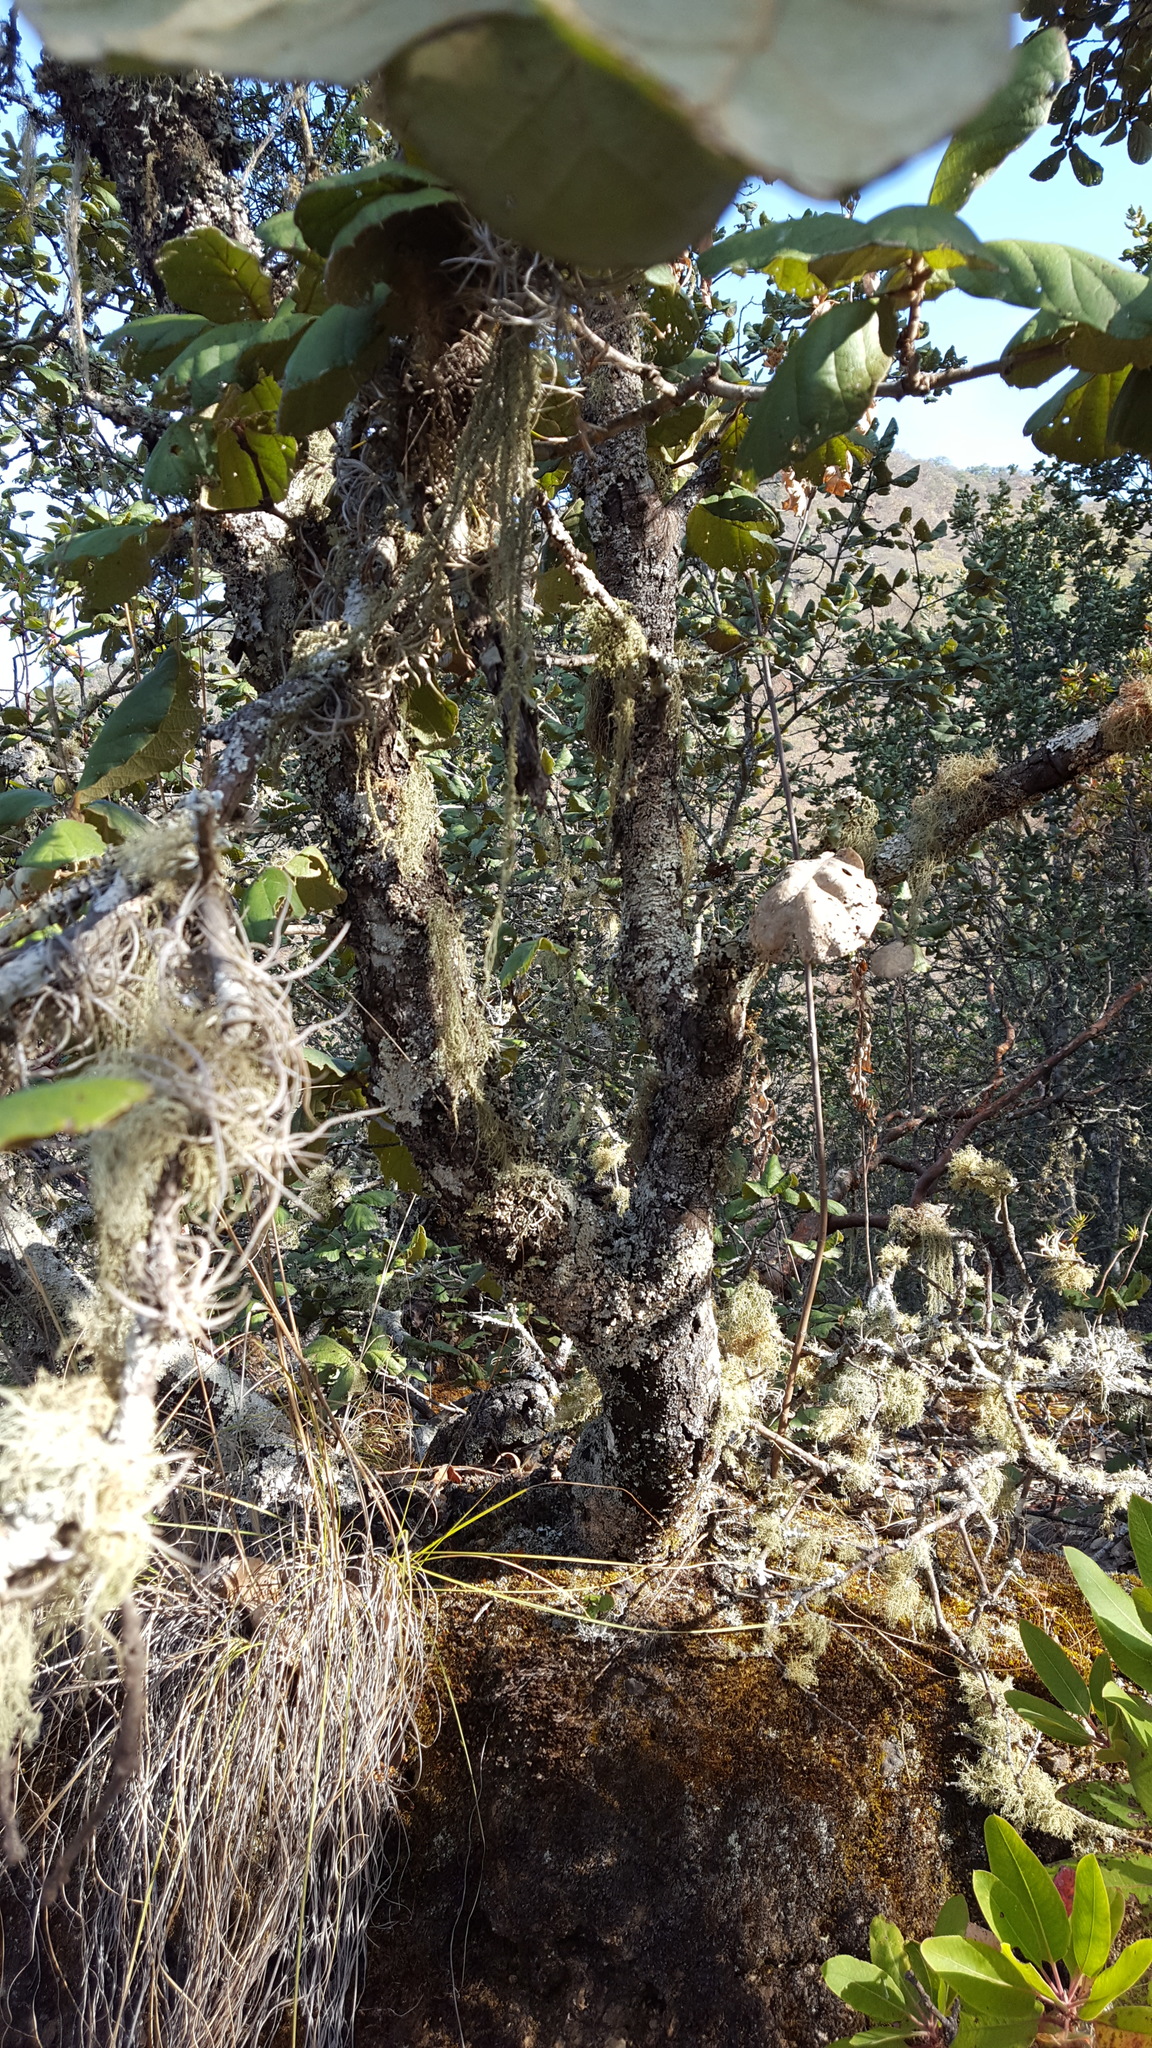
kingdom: Plantae
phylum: Tracheophyta
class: Magnoliopsida
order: Fagales
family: Fagaceae
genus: Quercus
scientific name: Quercus conzattii
